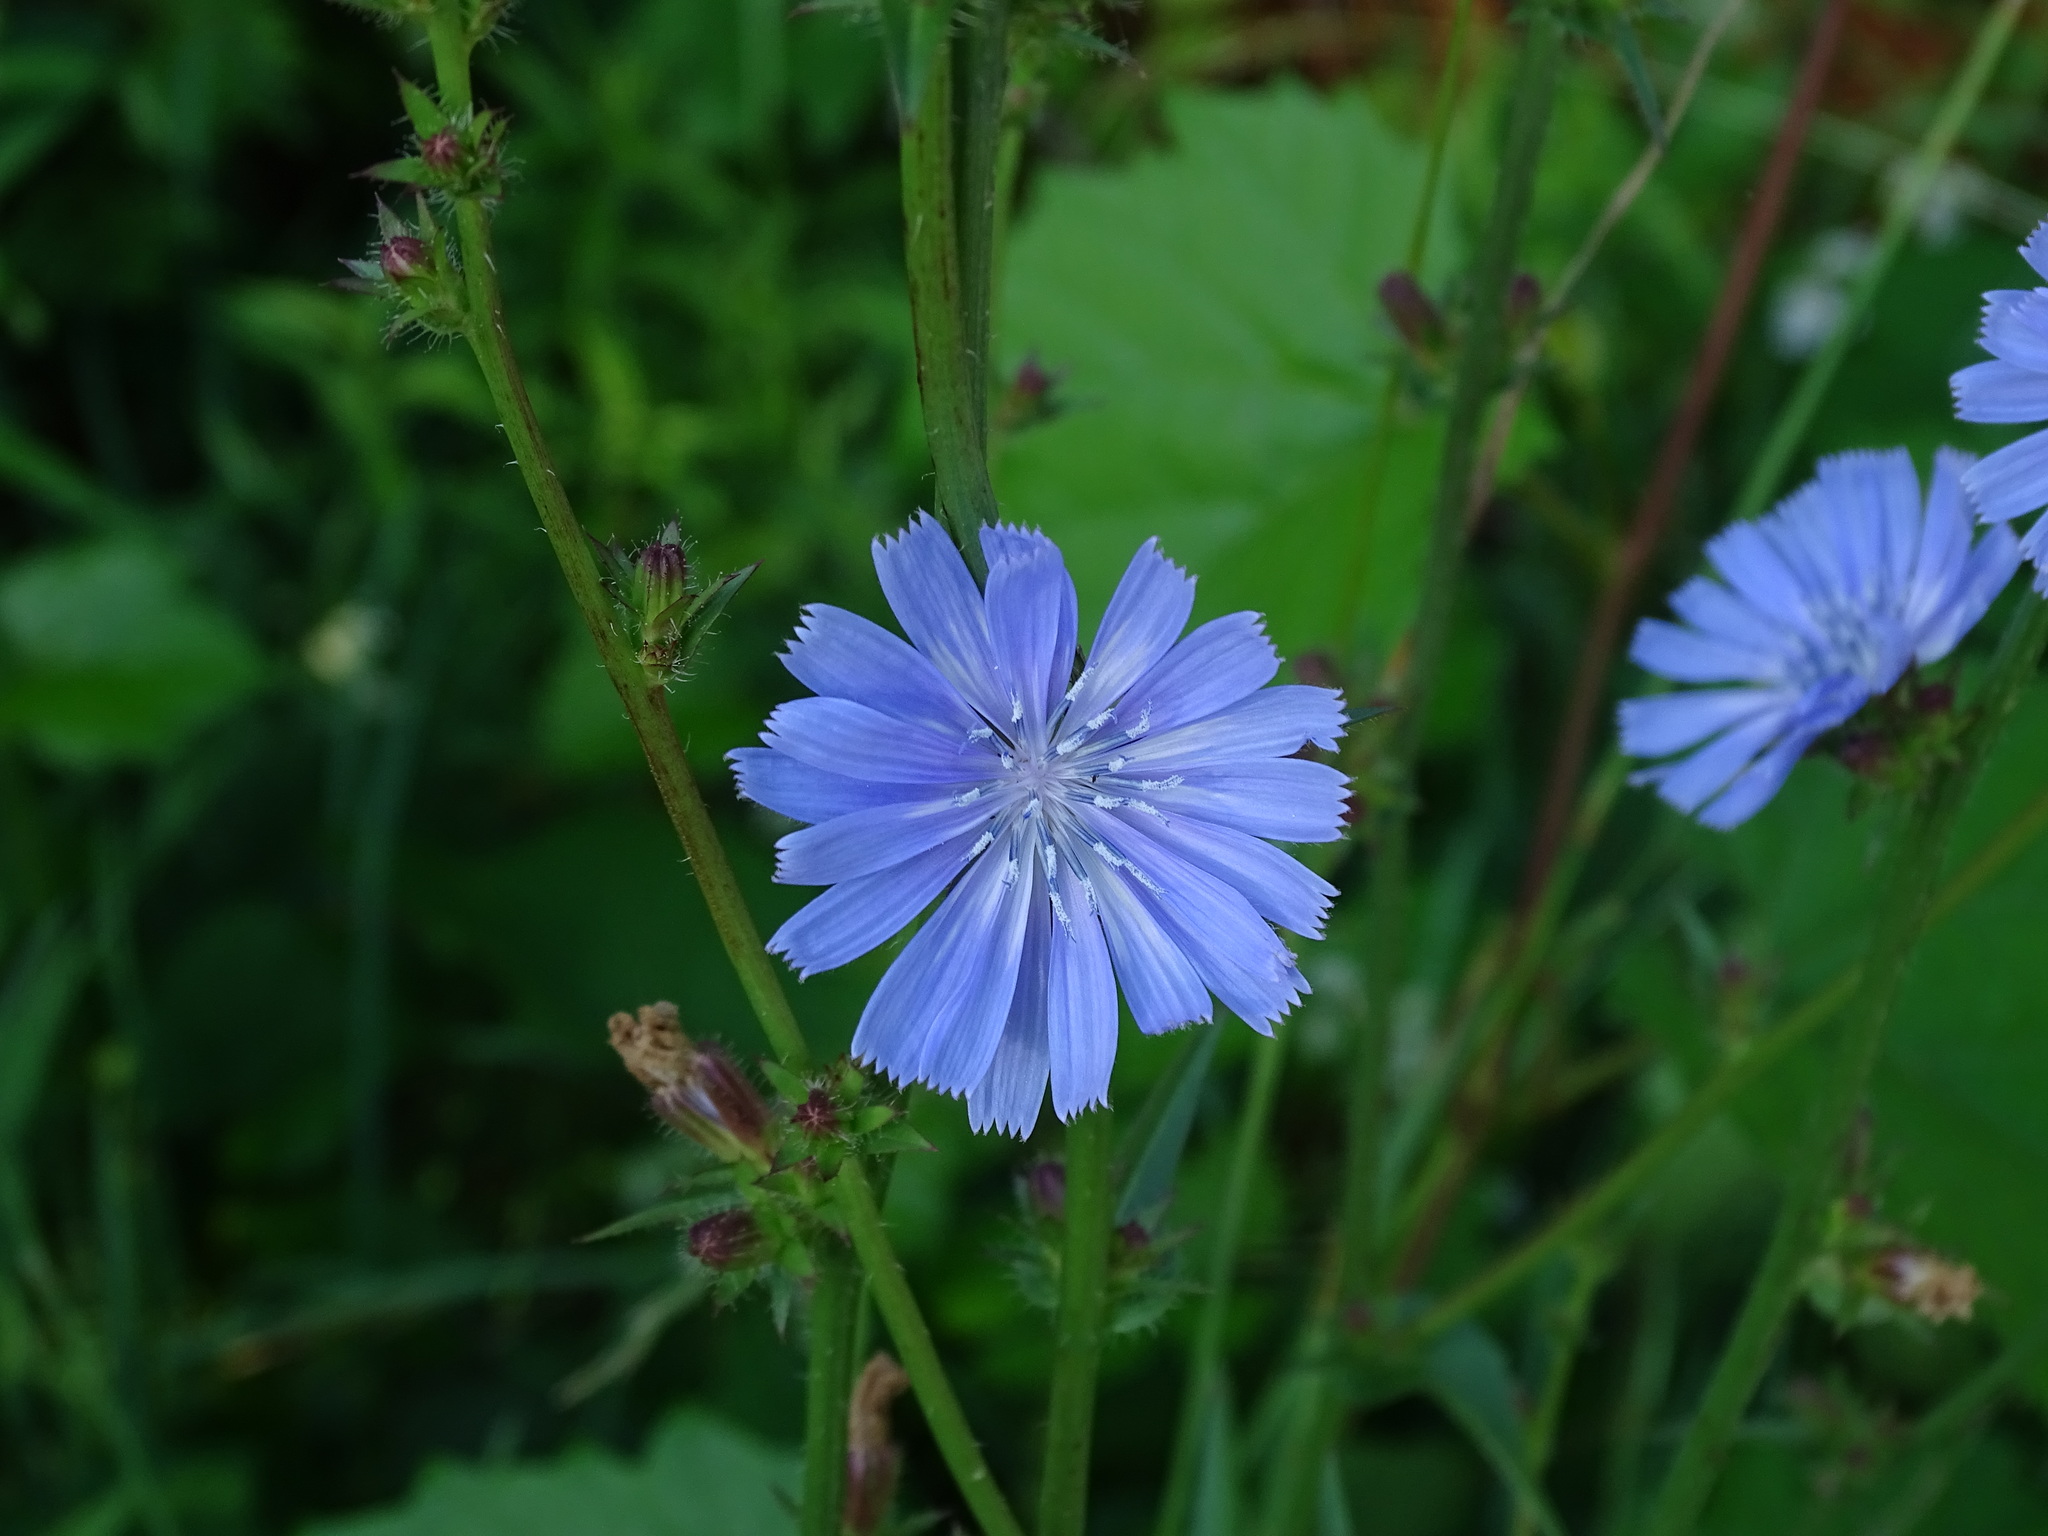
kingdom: Plantae
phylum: Tracheophyta
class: Magnoliopsida
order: Asterales
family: Asteraceae
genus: Cichorium
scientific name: Cichorium intybus
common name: Chicory
